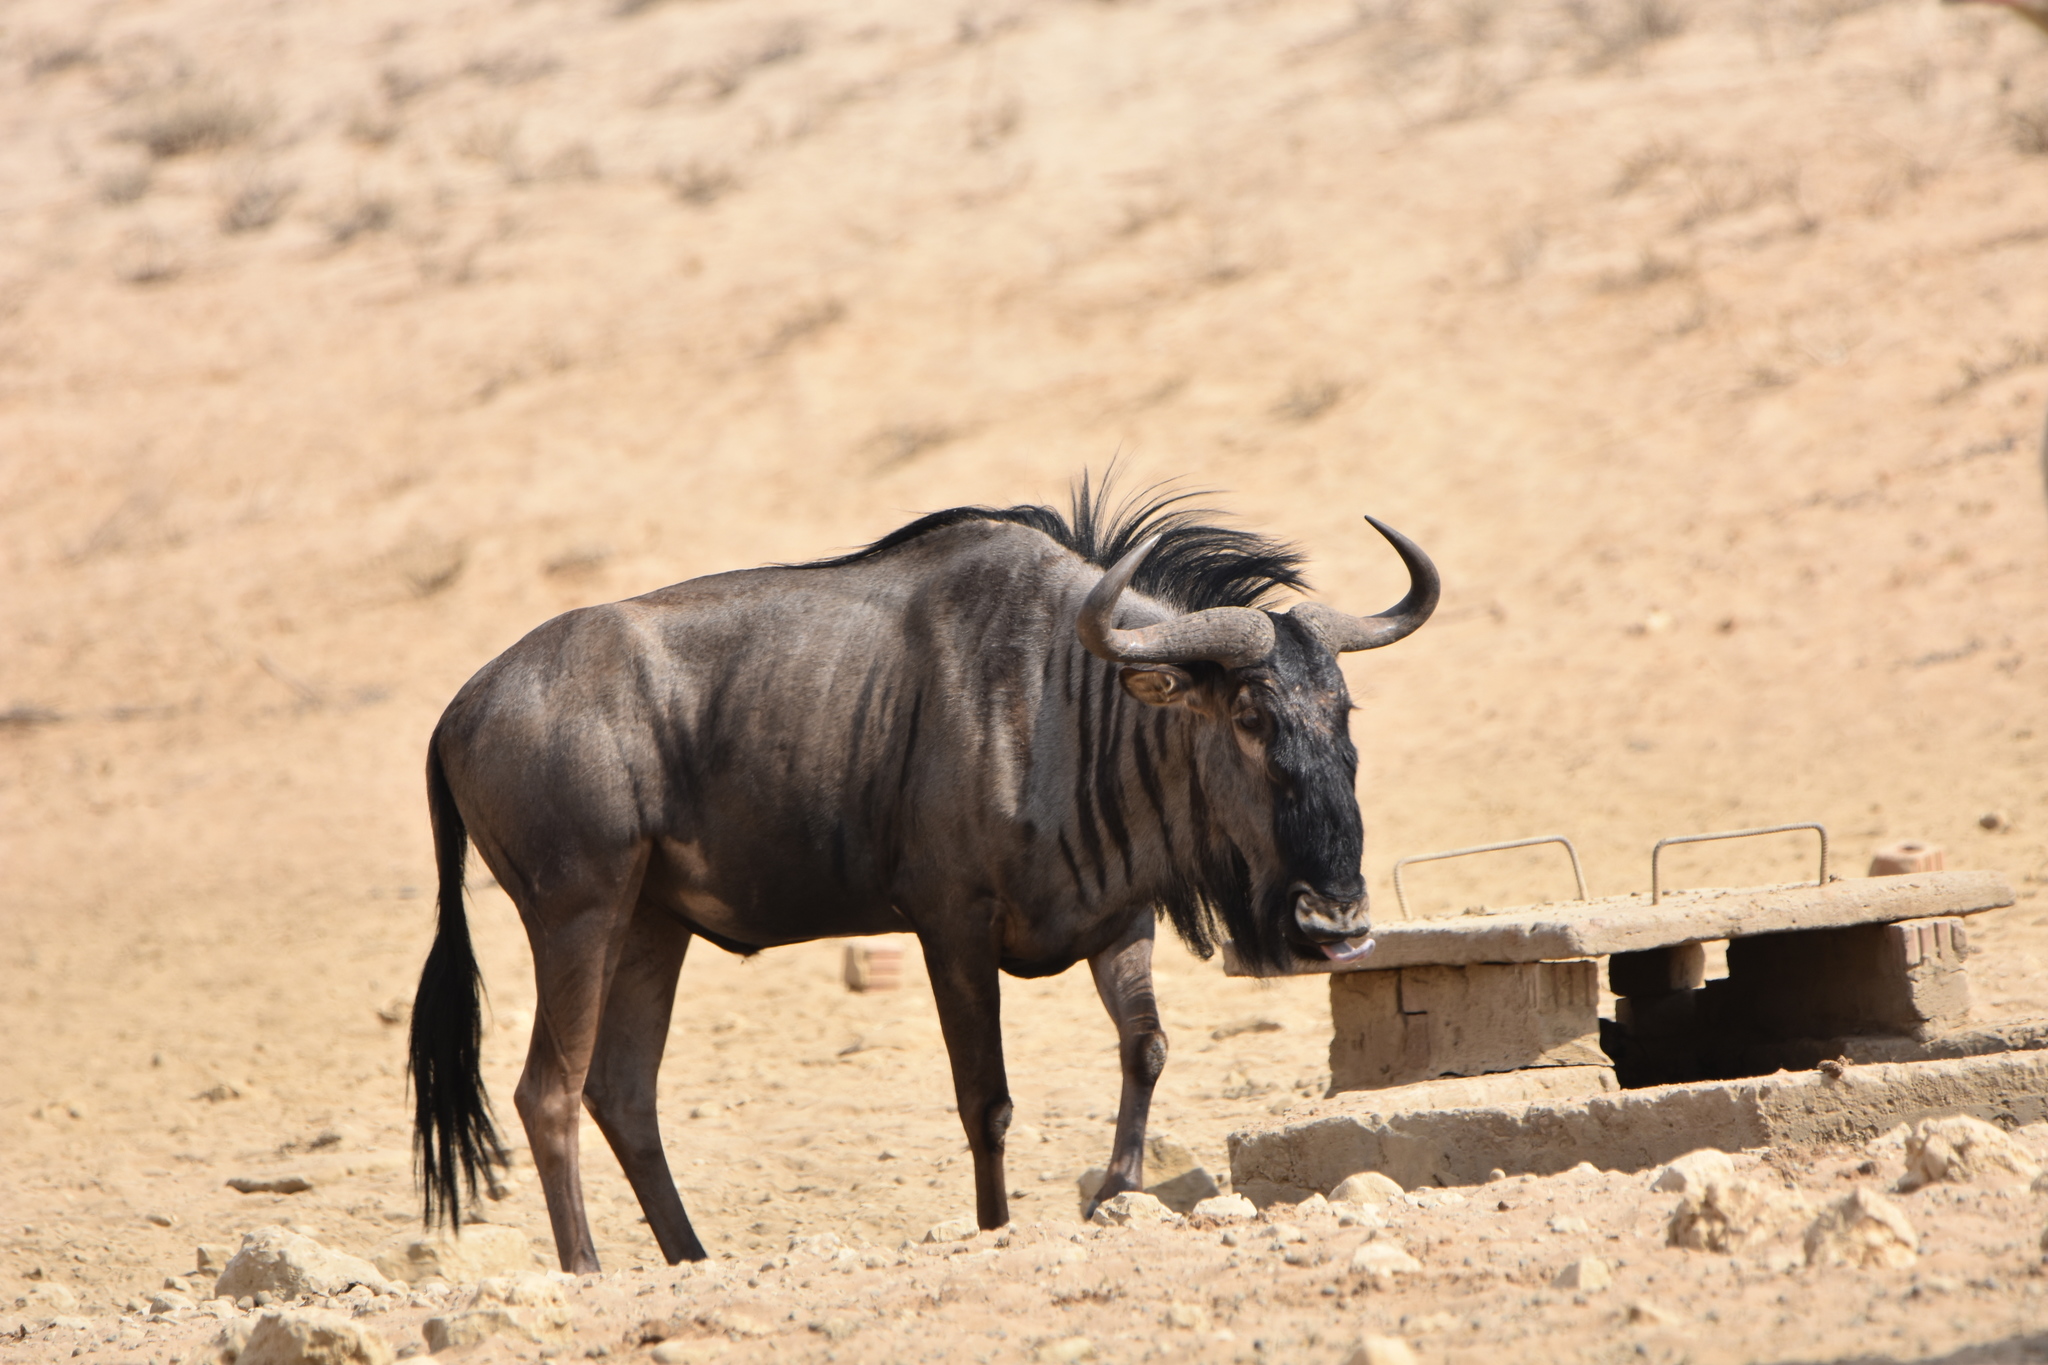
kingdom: Animalia
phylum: Chordata
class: Mammalia
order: Artiodactyla
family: Bovidae
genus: Connochaetes
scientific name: Connochaetes taurinus
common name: Blue wildebeest
